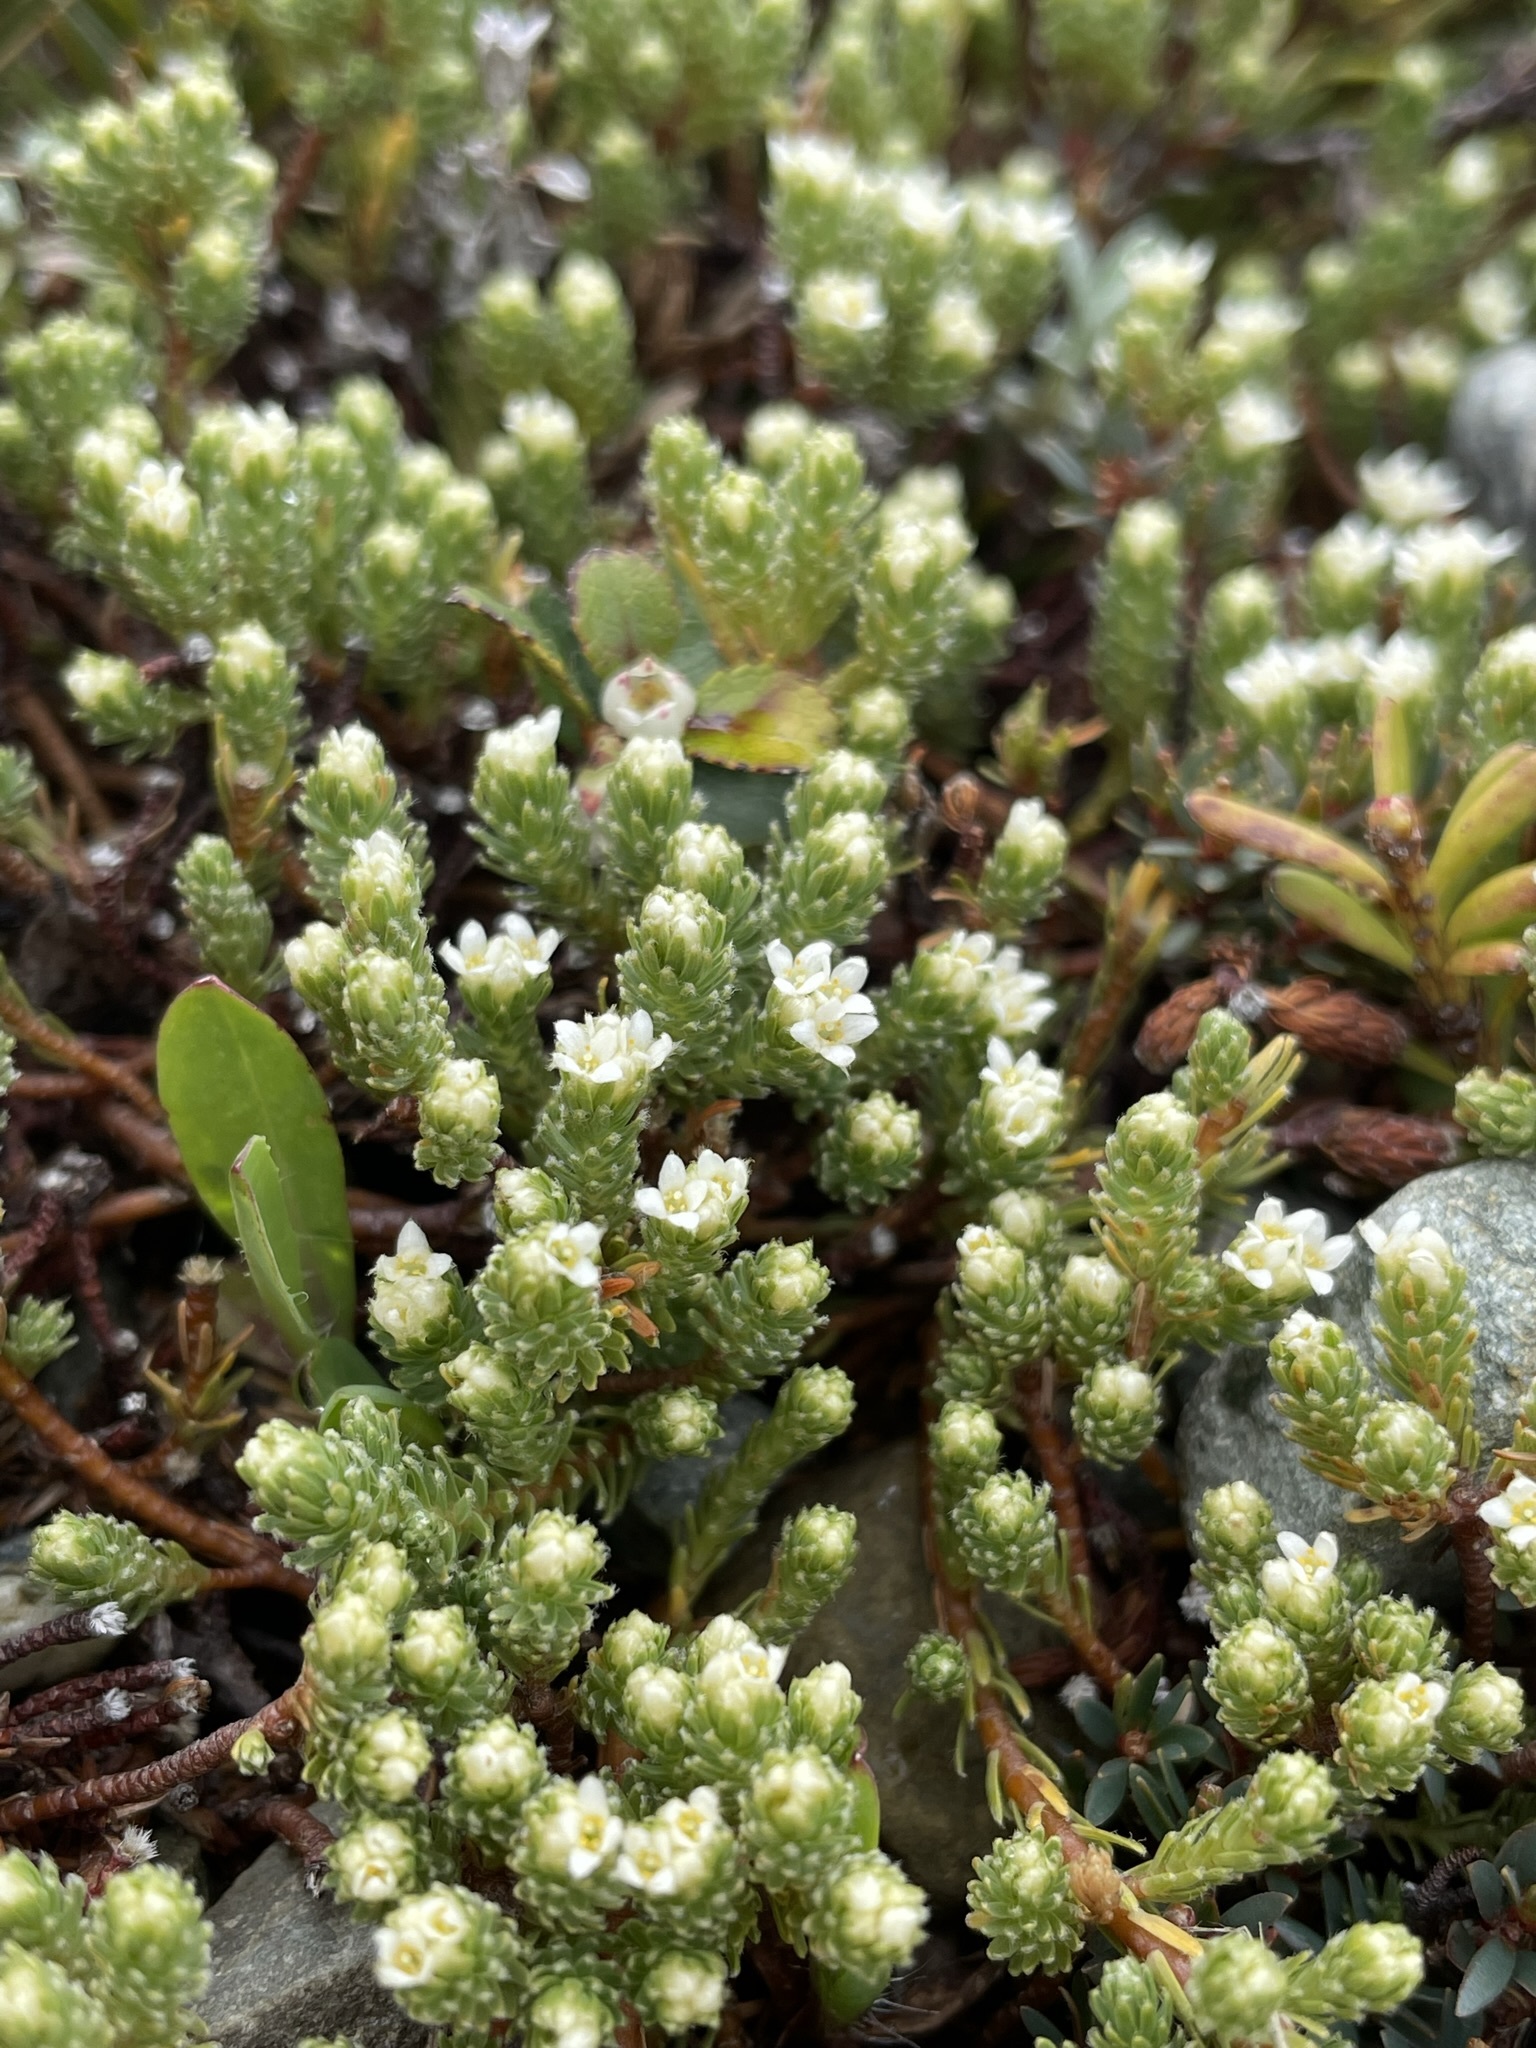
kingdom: Plantae
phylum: Tracheophyta
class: Magnoliopsida
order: Malvales
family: Thymelaeaceae
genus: Kelleria
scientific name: Kelleria dieffenbachii
